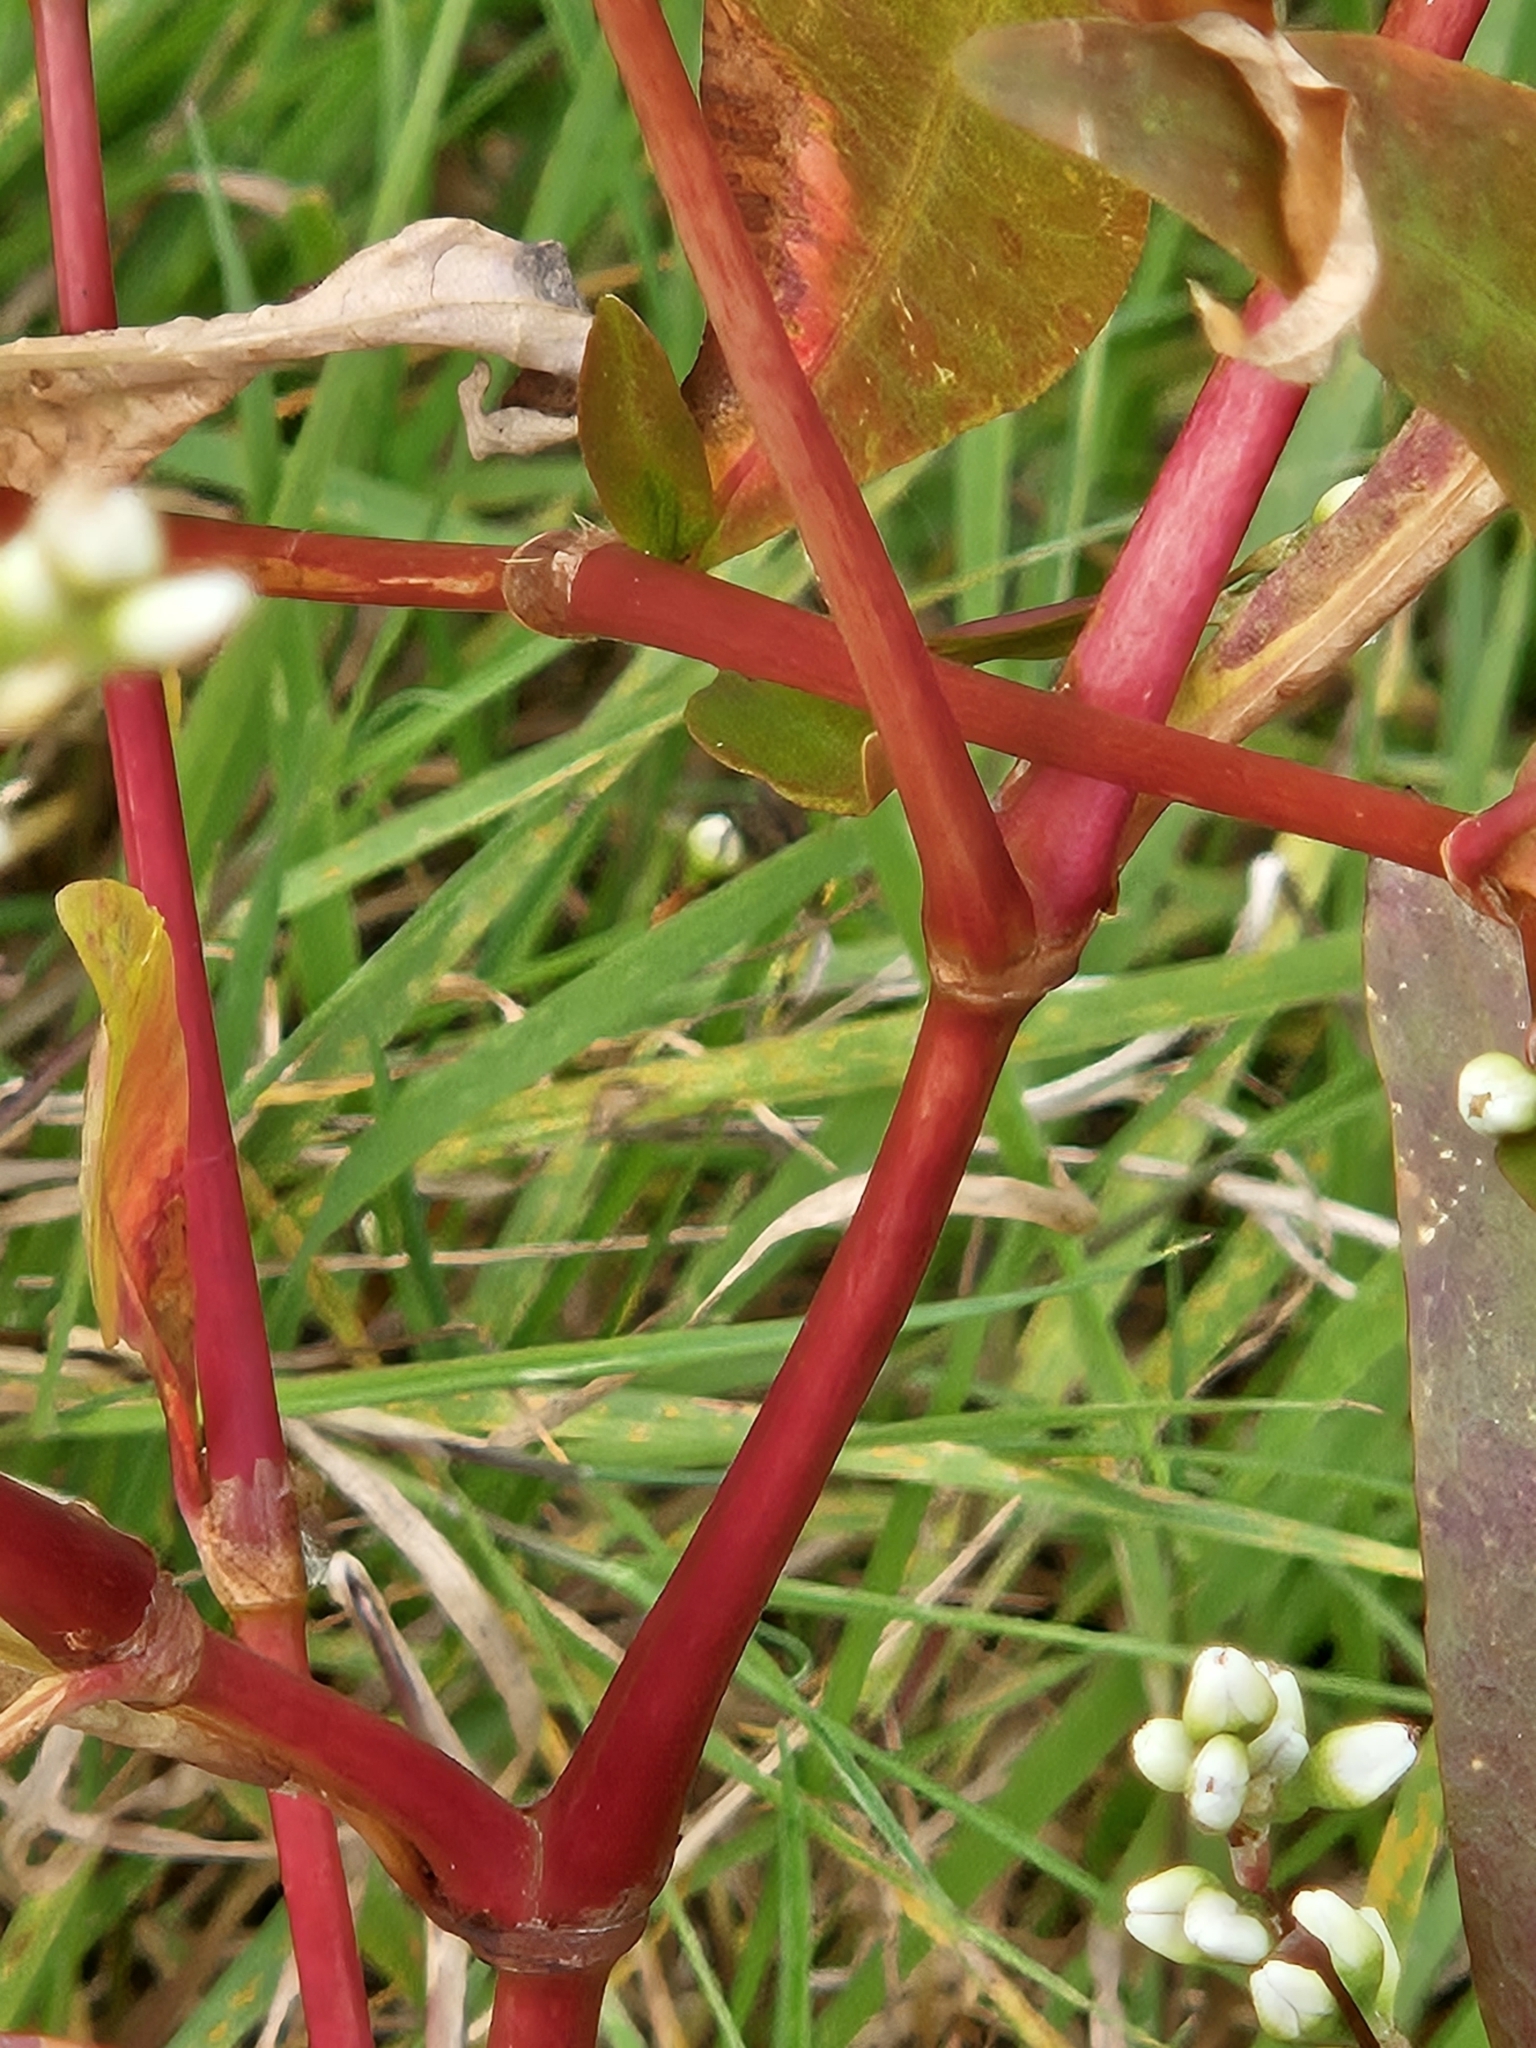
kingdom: Plantae
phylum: Tracheophyta
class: Magnoliopsida
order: Caryophyllales
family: Polygonaceae
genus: Persicaria
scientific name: Persicaria longiseta
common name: Bristly lady's-thumb
